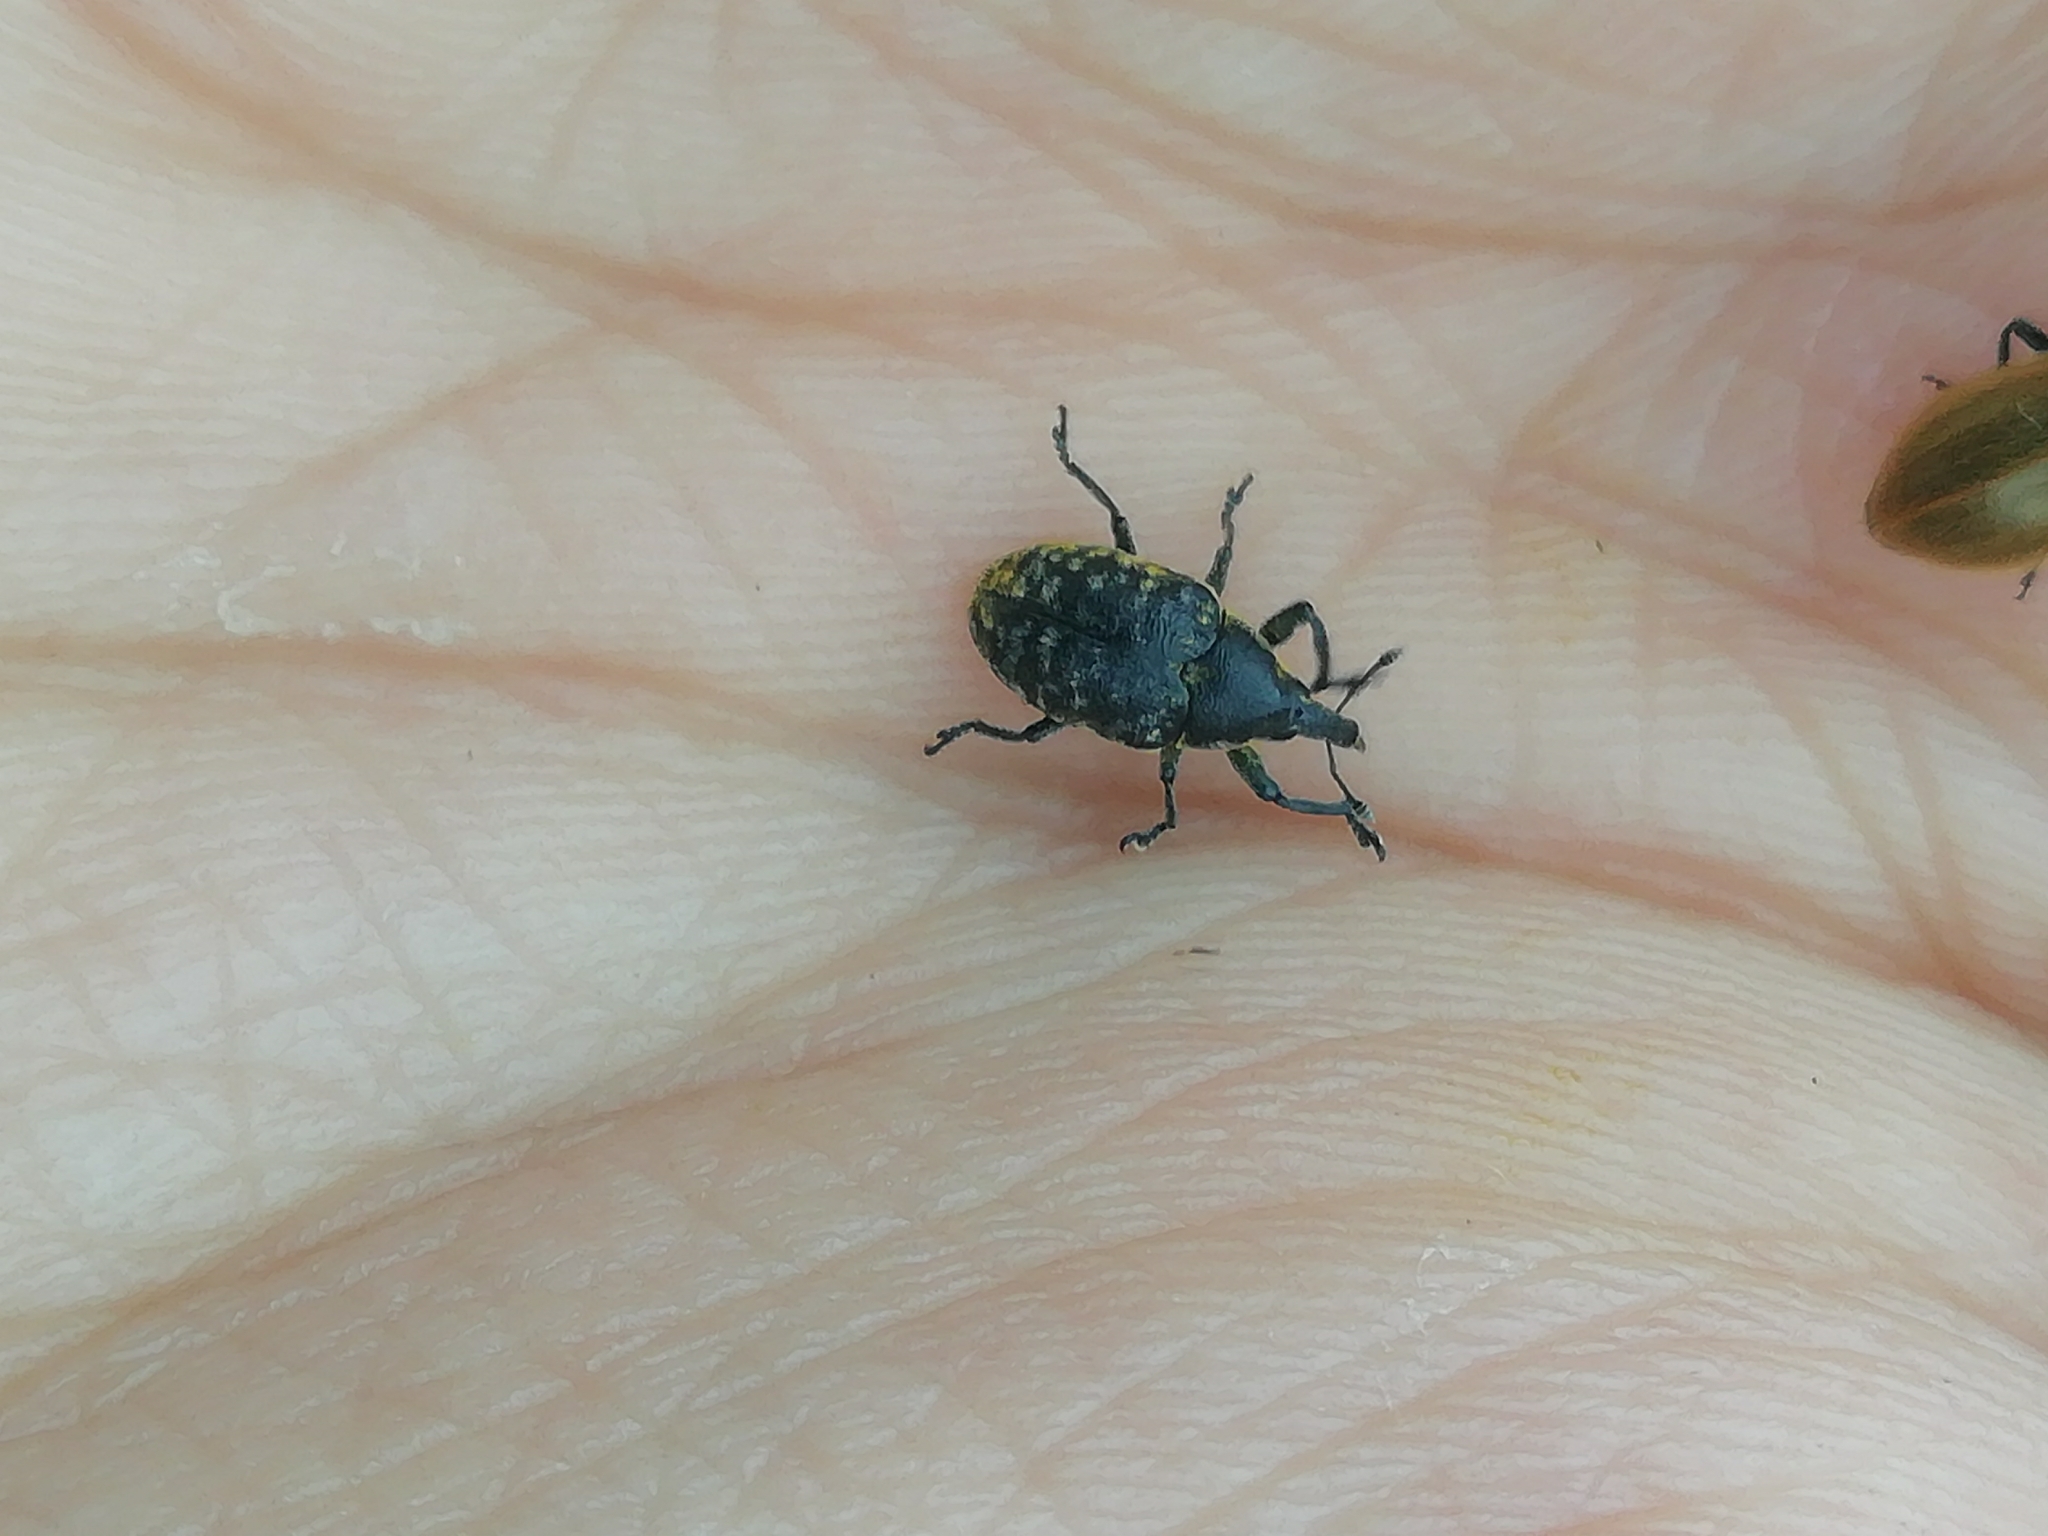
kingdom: Animalia
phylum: Arthropoda
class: Insecta
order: Coleoptera
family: Curculionidae
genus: Larinus
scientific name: Larinus turbinatus
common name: Weevil
